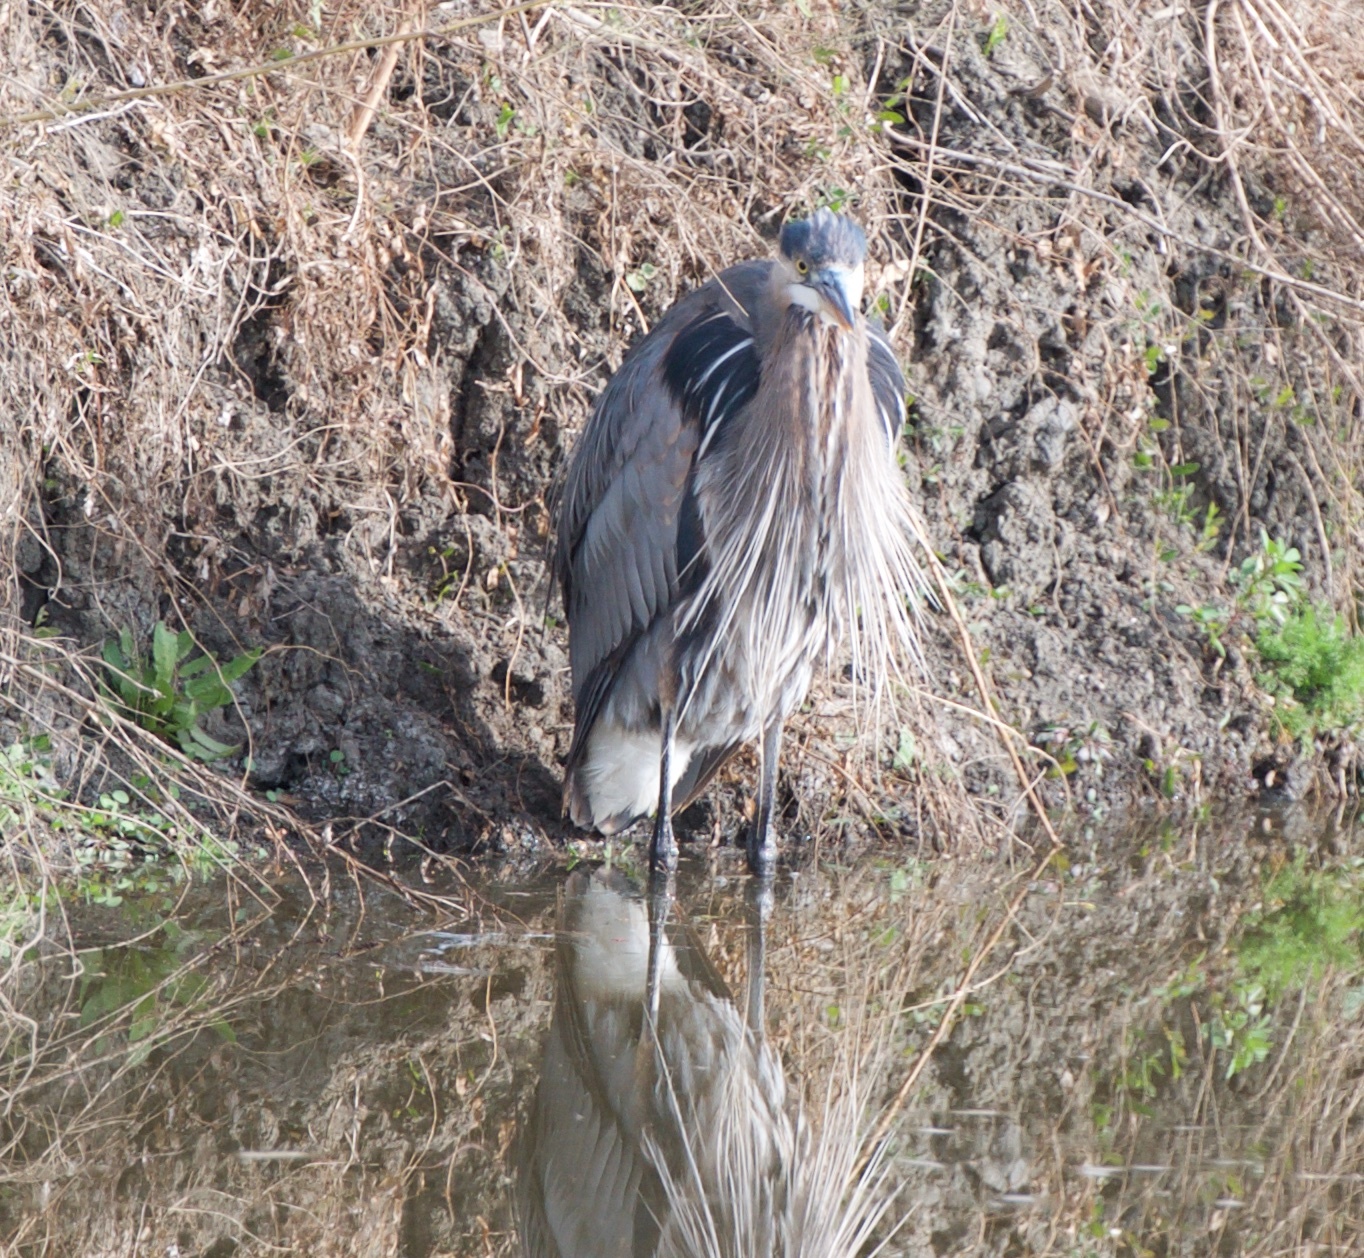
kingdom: Animalia
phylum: Chordata
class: Aves
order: Pelecaniformes
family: Ardeidae
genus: Ardea
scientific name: Ardea herodias
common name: Great blue heron
